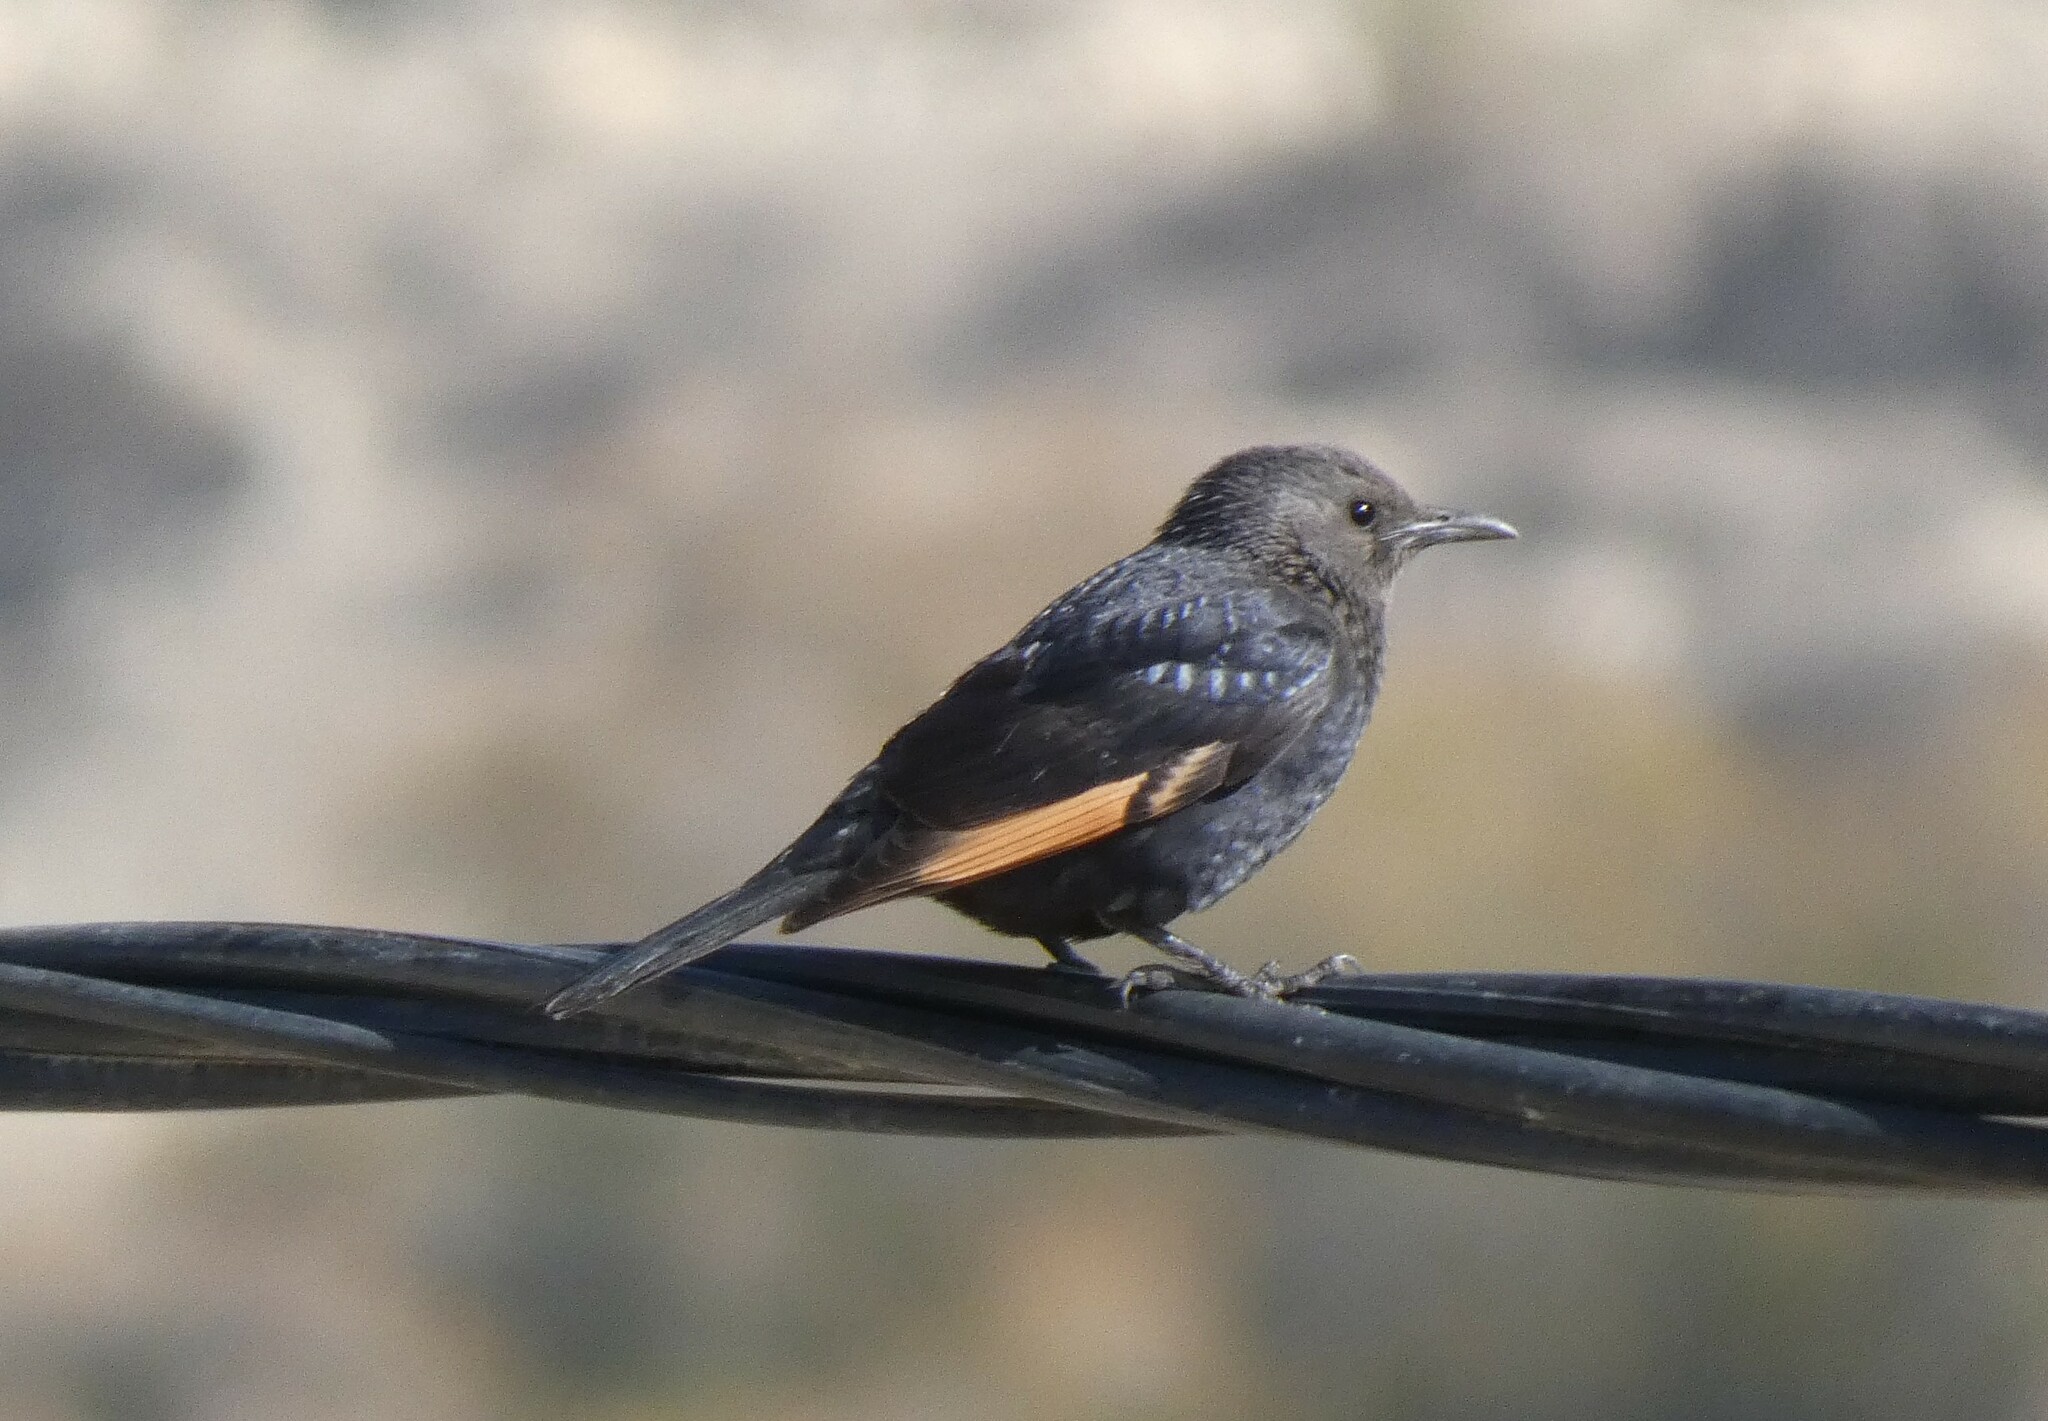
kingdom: Animalia
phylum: Chordata
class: Aves
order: Passeriformes
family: Sturnidae
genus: Onychognathus
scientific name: Onychognathus tristramii
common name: Tristram's starling
